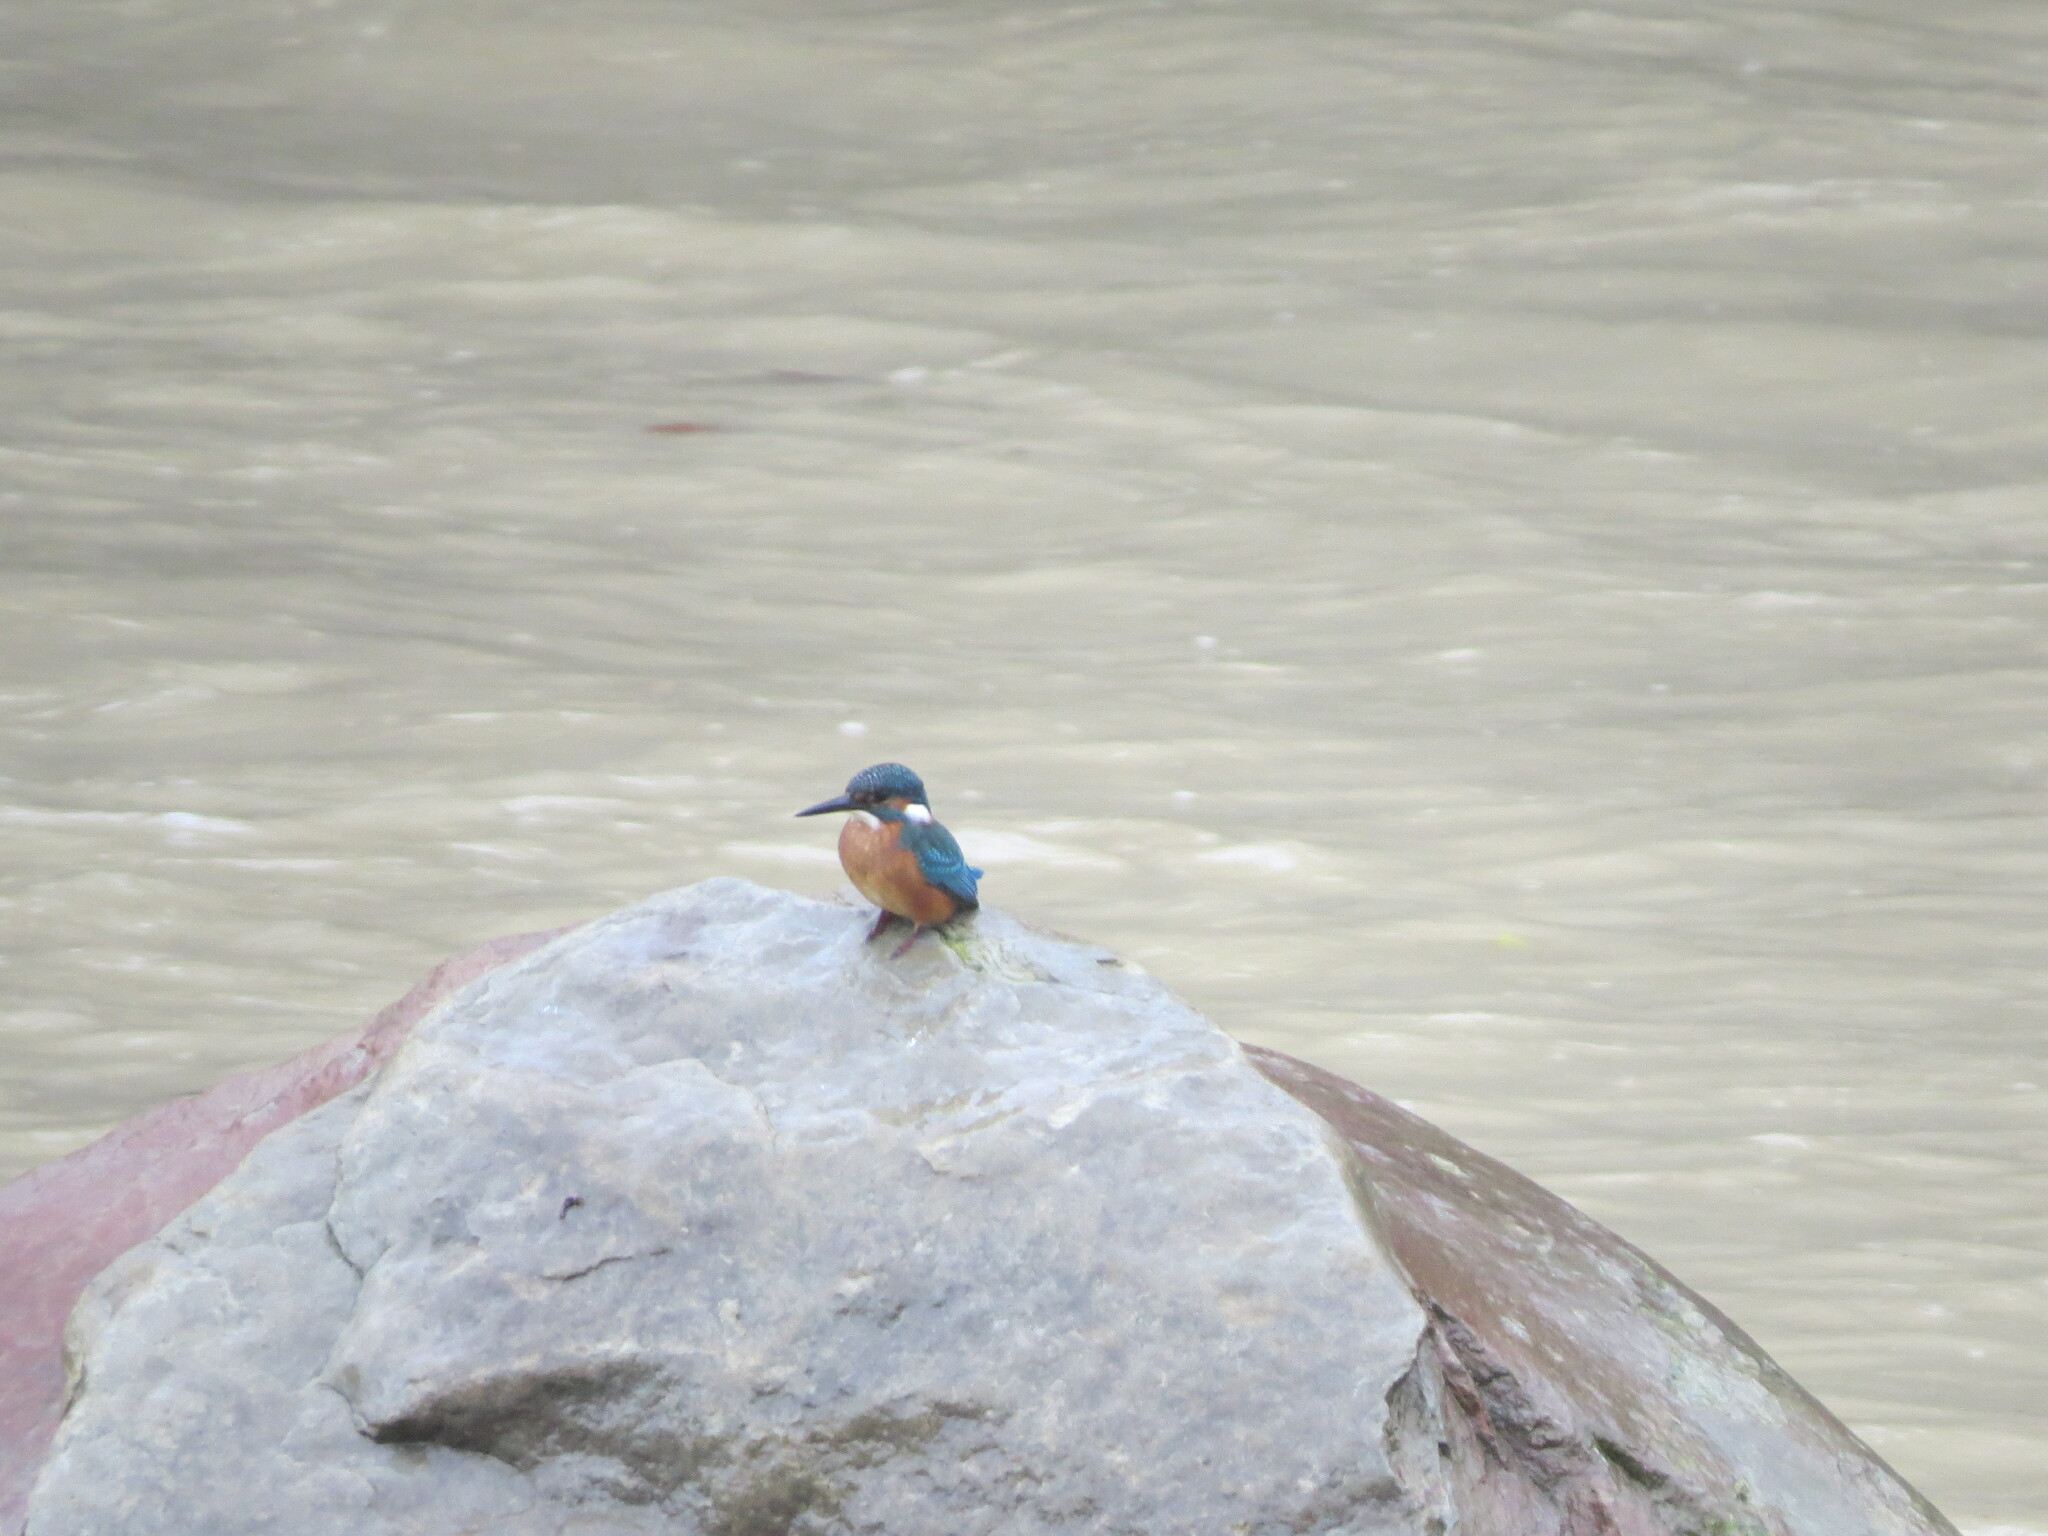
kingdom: Animalia
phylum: Chordata
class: Aves
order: Coraciiformes
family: Alcedinidae
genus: Alcedo
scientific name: Alcedo atthis
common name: Common kingfisher
